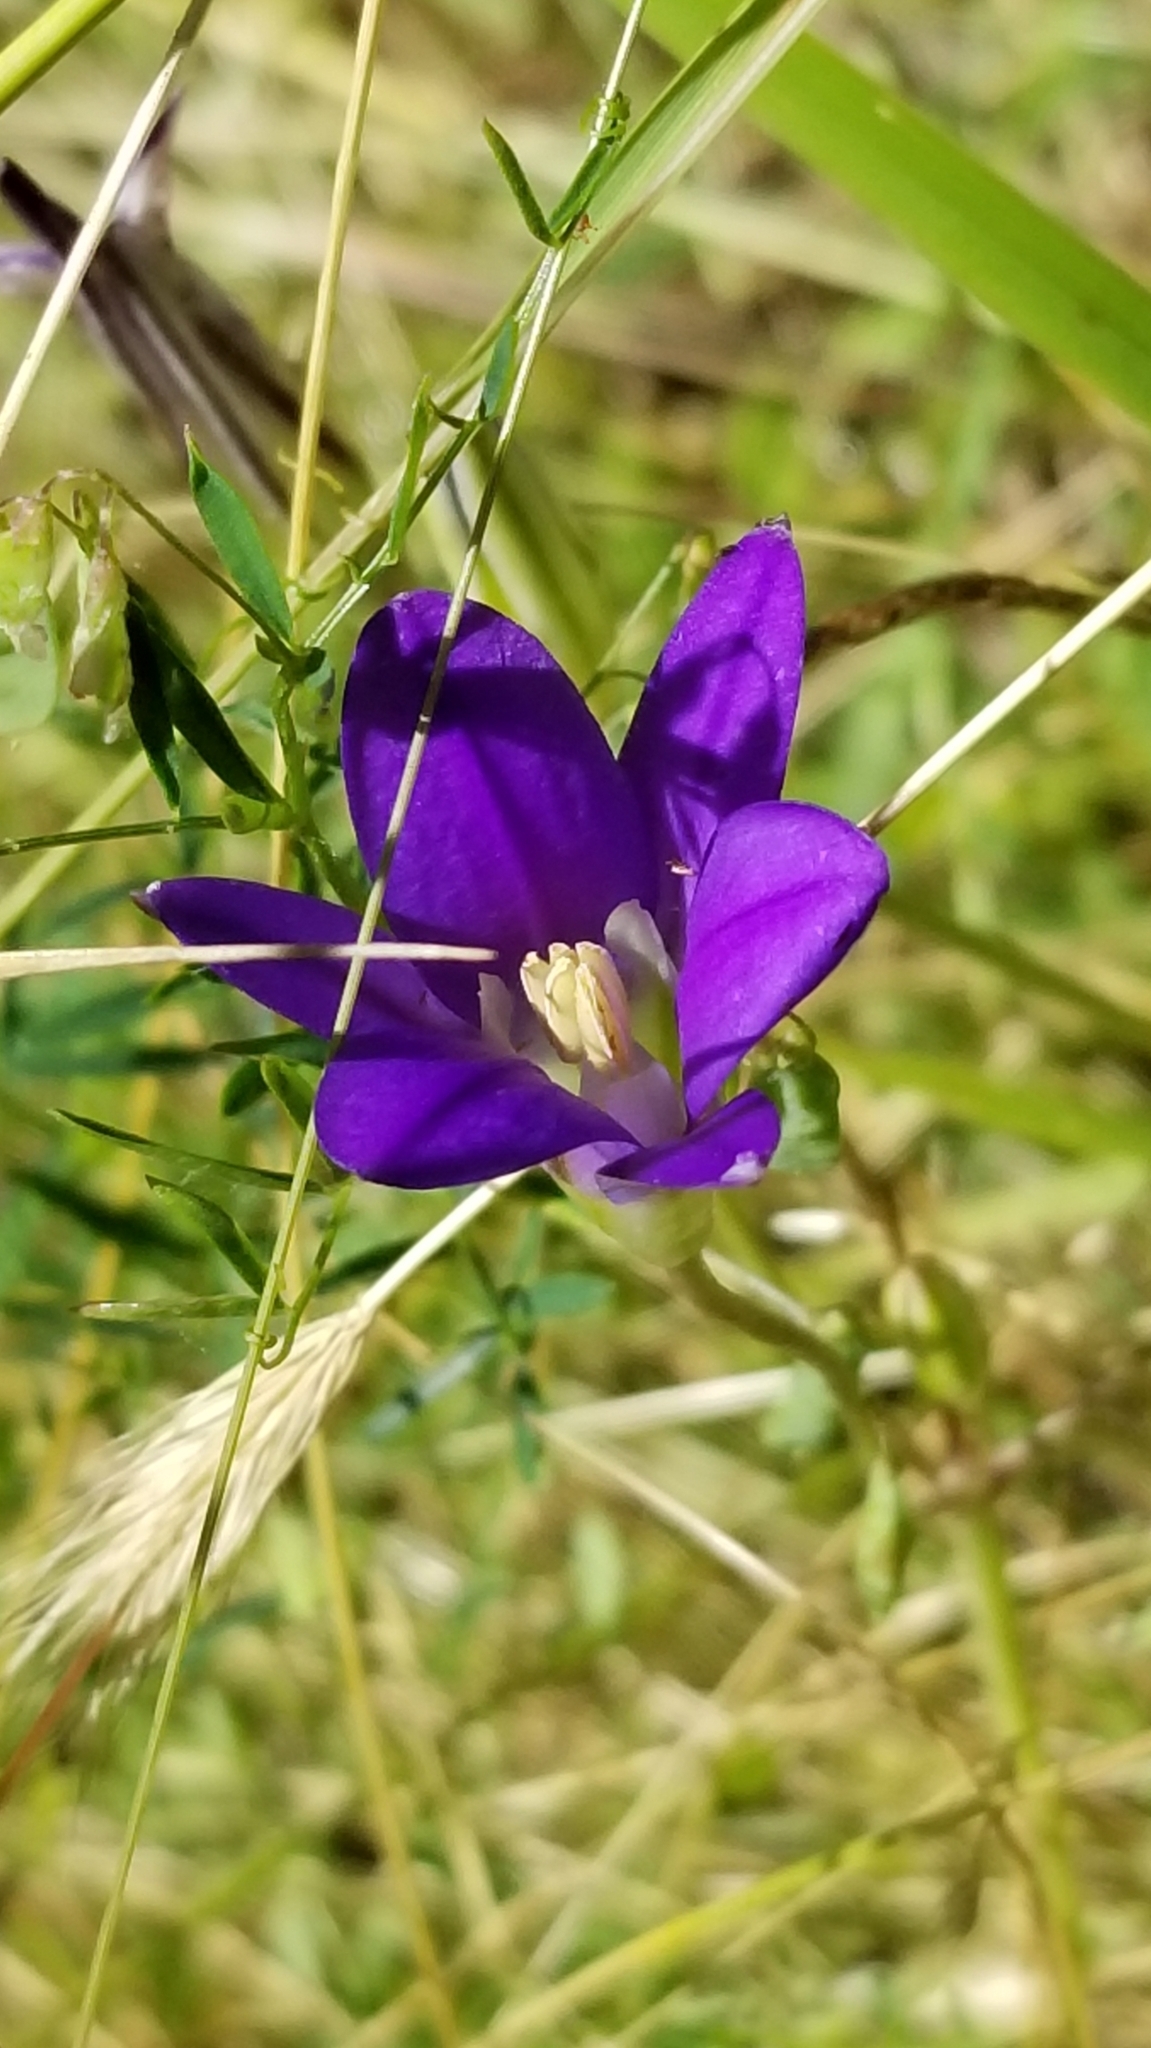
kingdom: Plantae
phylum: Tracheophyta
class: Liliopsida
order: Asparagales
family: Asparagaceae
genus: Brodiaea
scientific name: Brodiaea elegans
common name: Elegant cluster-lily
